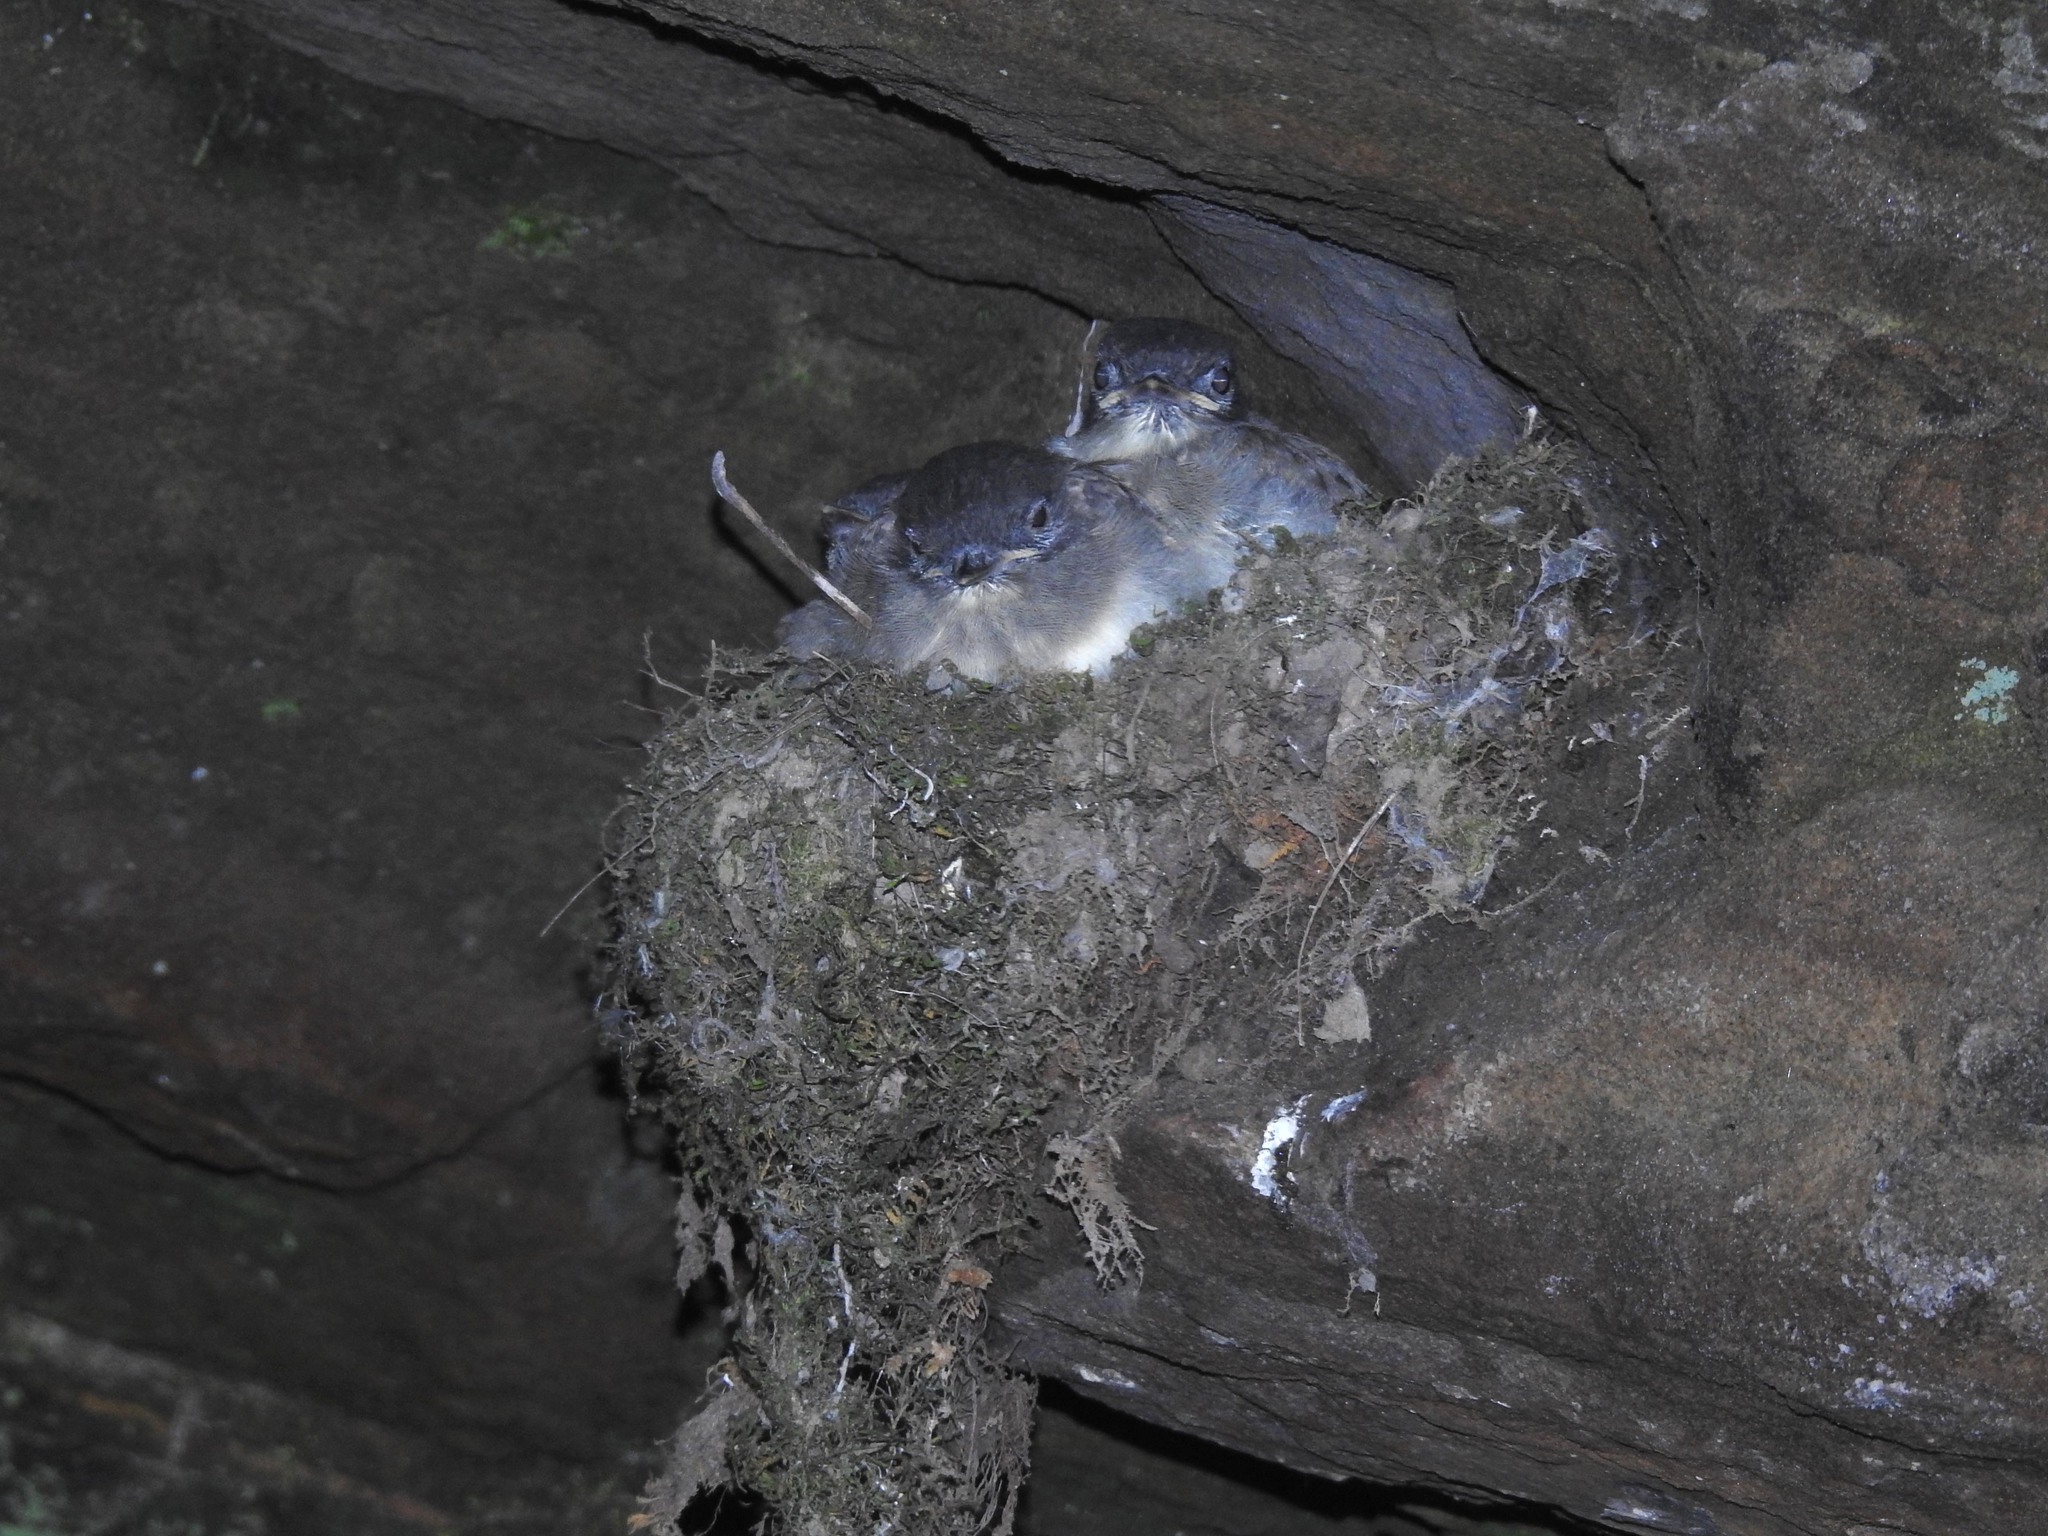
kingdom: Animalia
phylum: Chordata
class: Aves
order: Passeriformes
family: Tyrannidae
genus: Sayornis
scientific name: Sayornis phoebe
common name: Eastern phoebe
